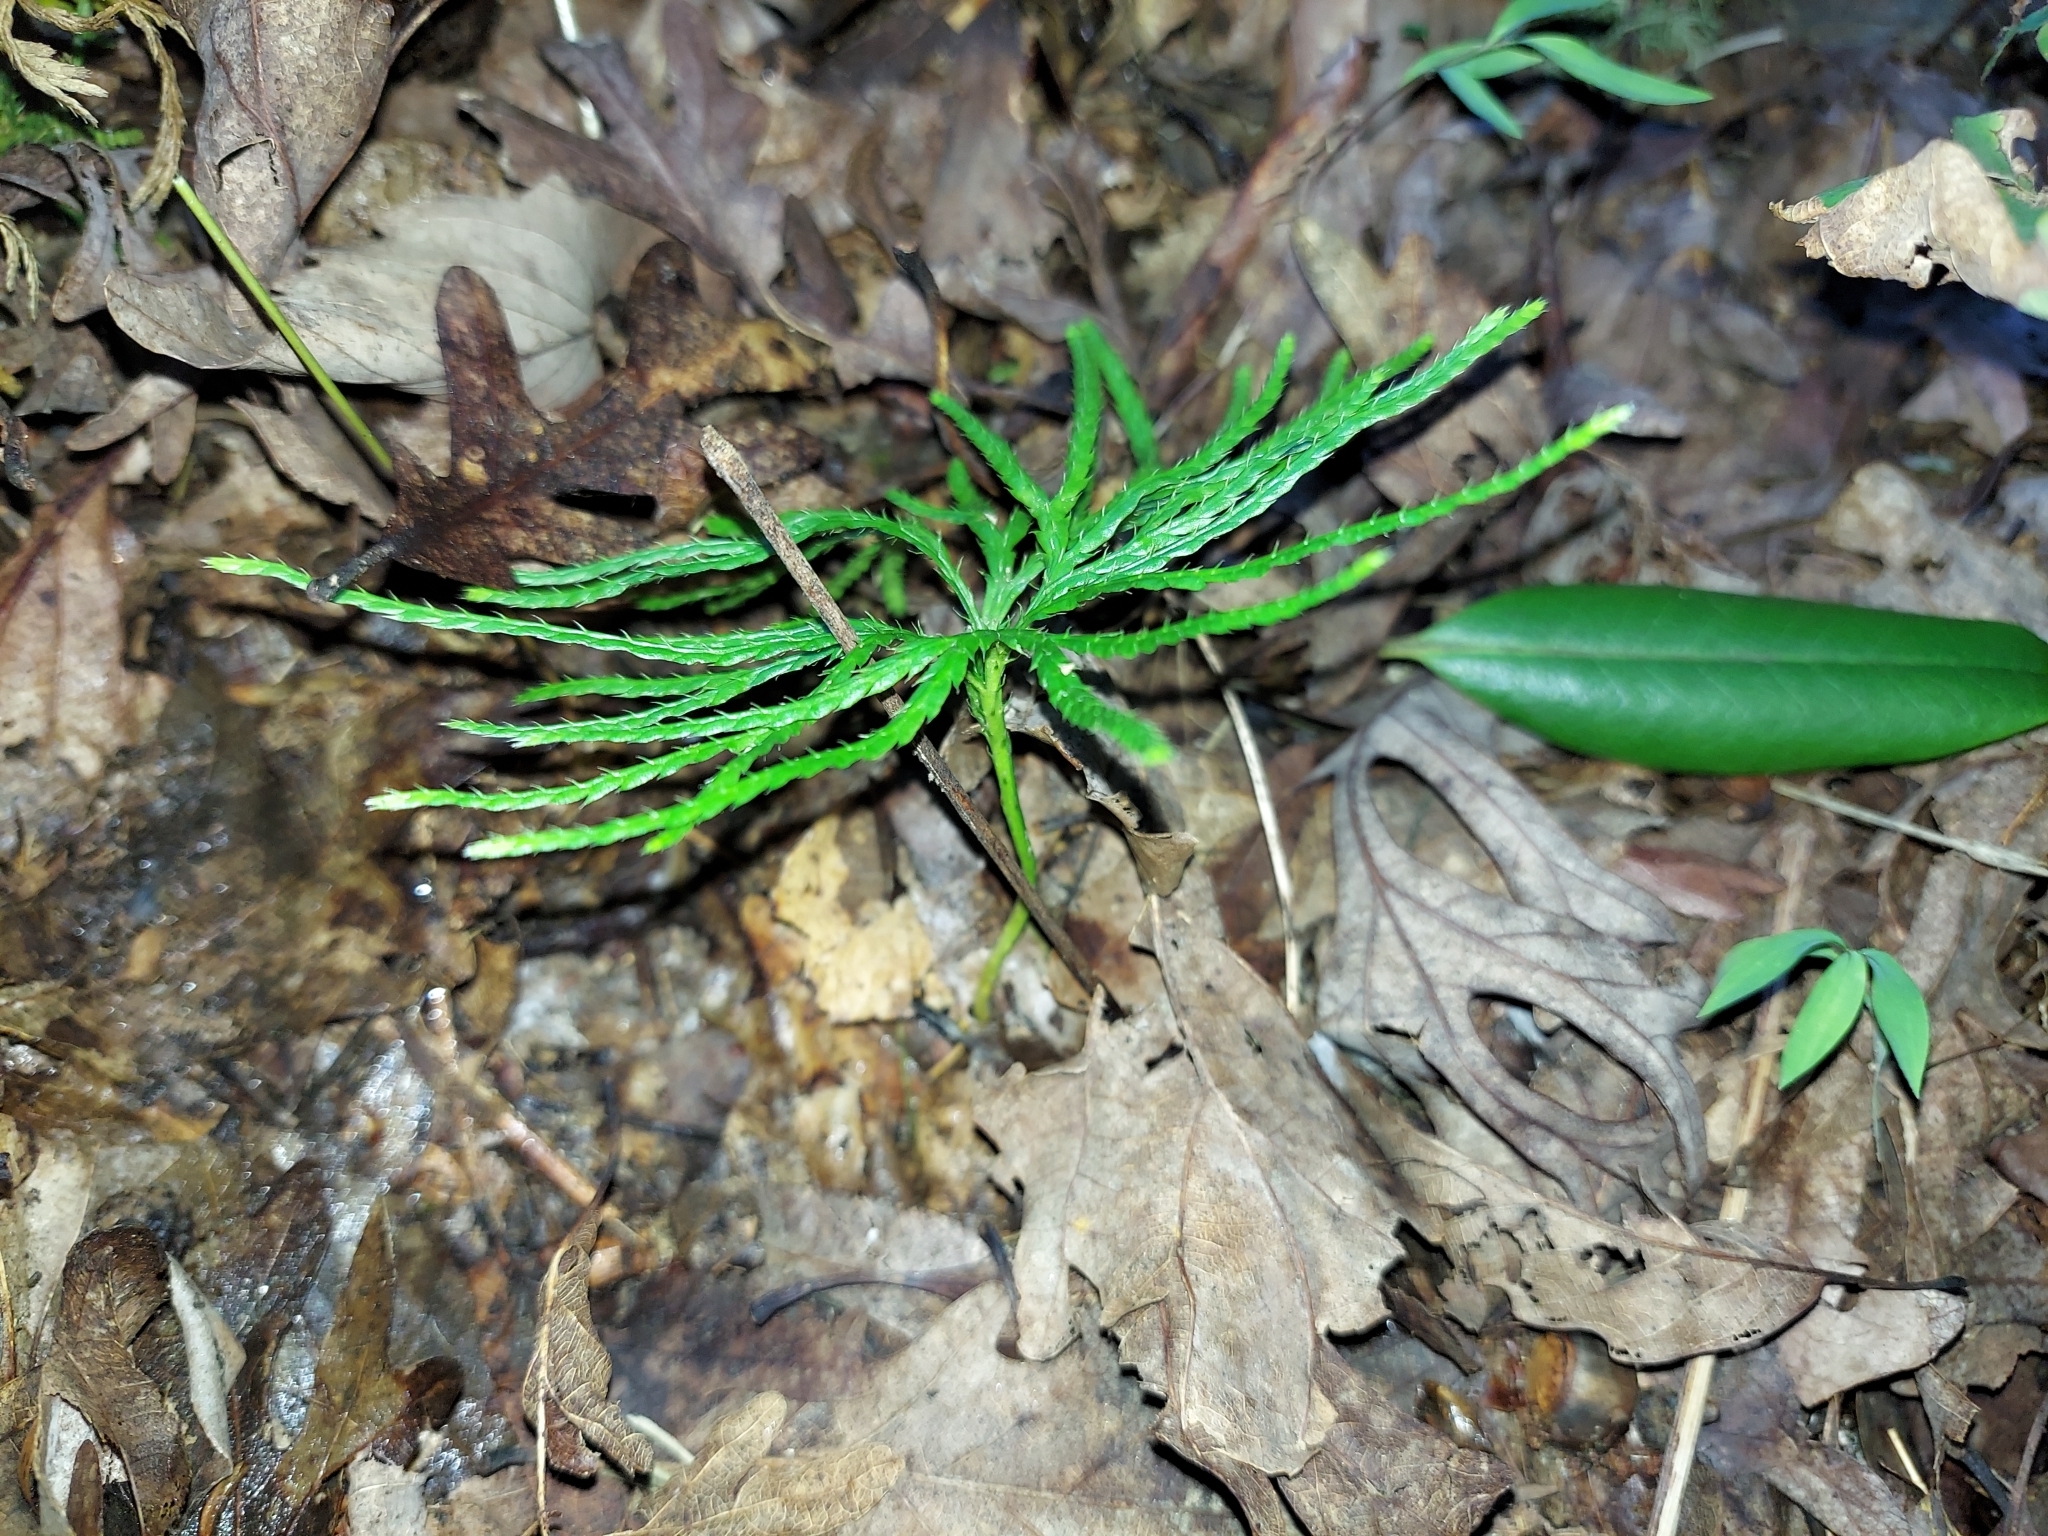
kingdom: Plantae
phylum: Tracheophyta
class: Lycopodiopsida
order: Lycopodiales
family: Lycopodiaceae
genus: Diphasiastrum
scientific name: Diphasiastrum digitatum
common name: Southern running-pine
